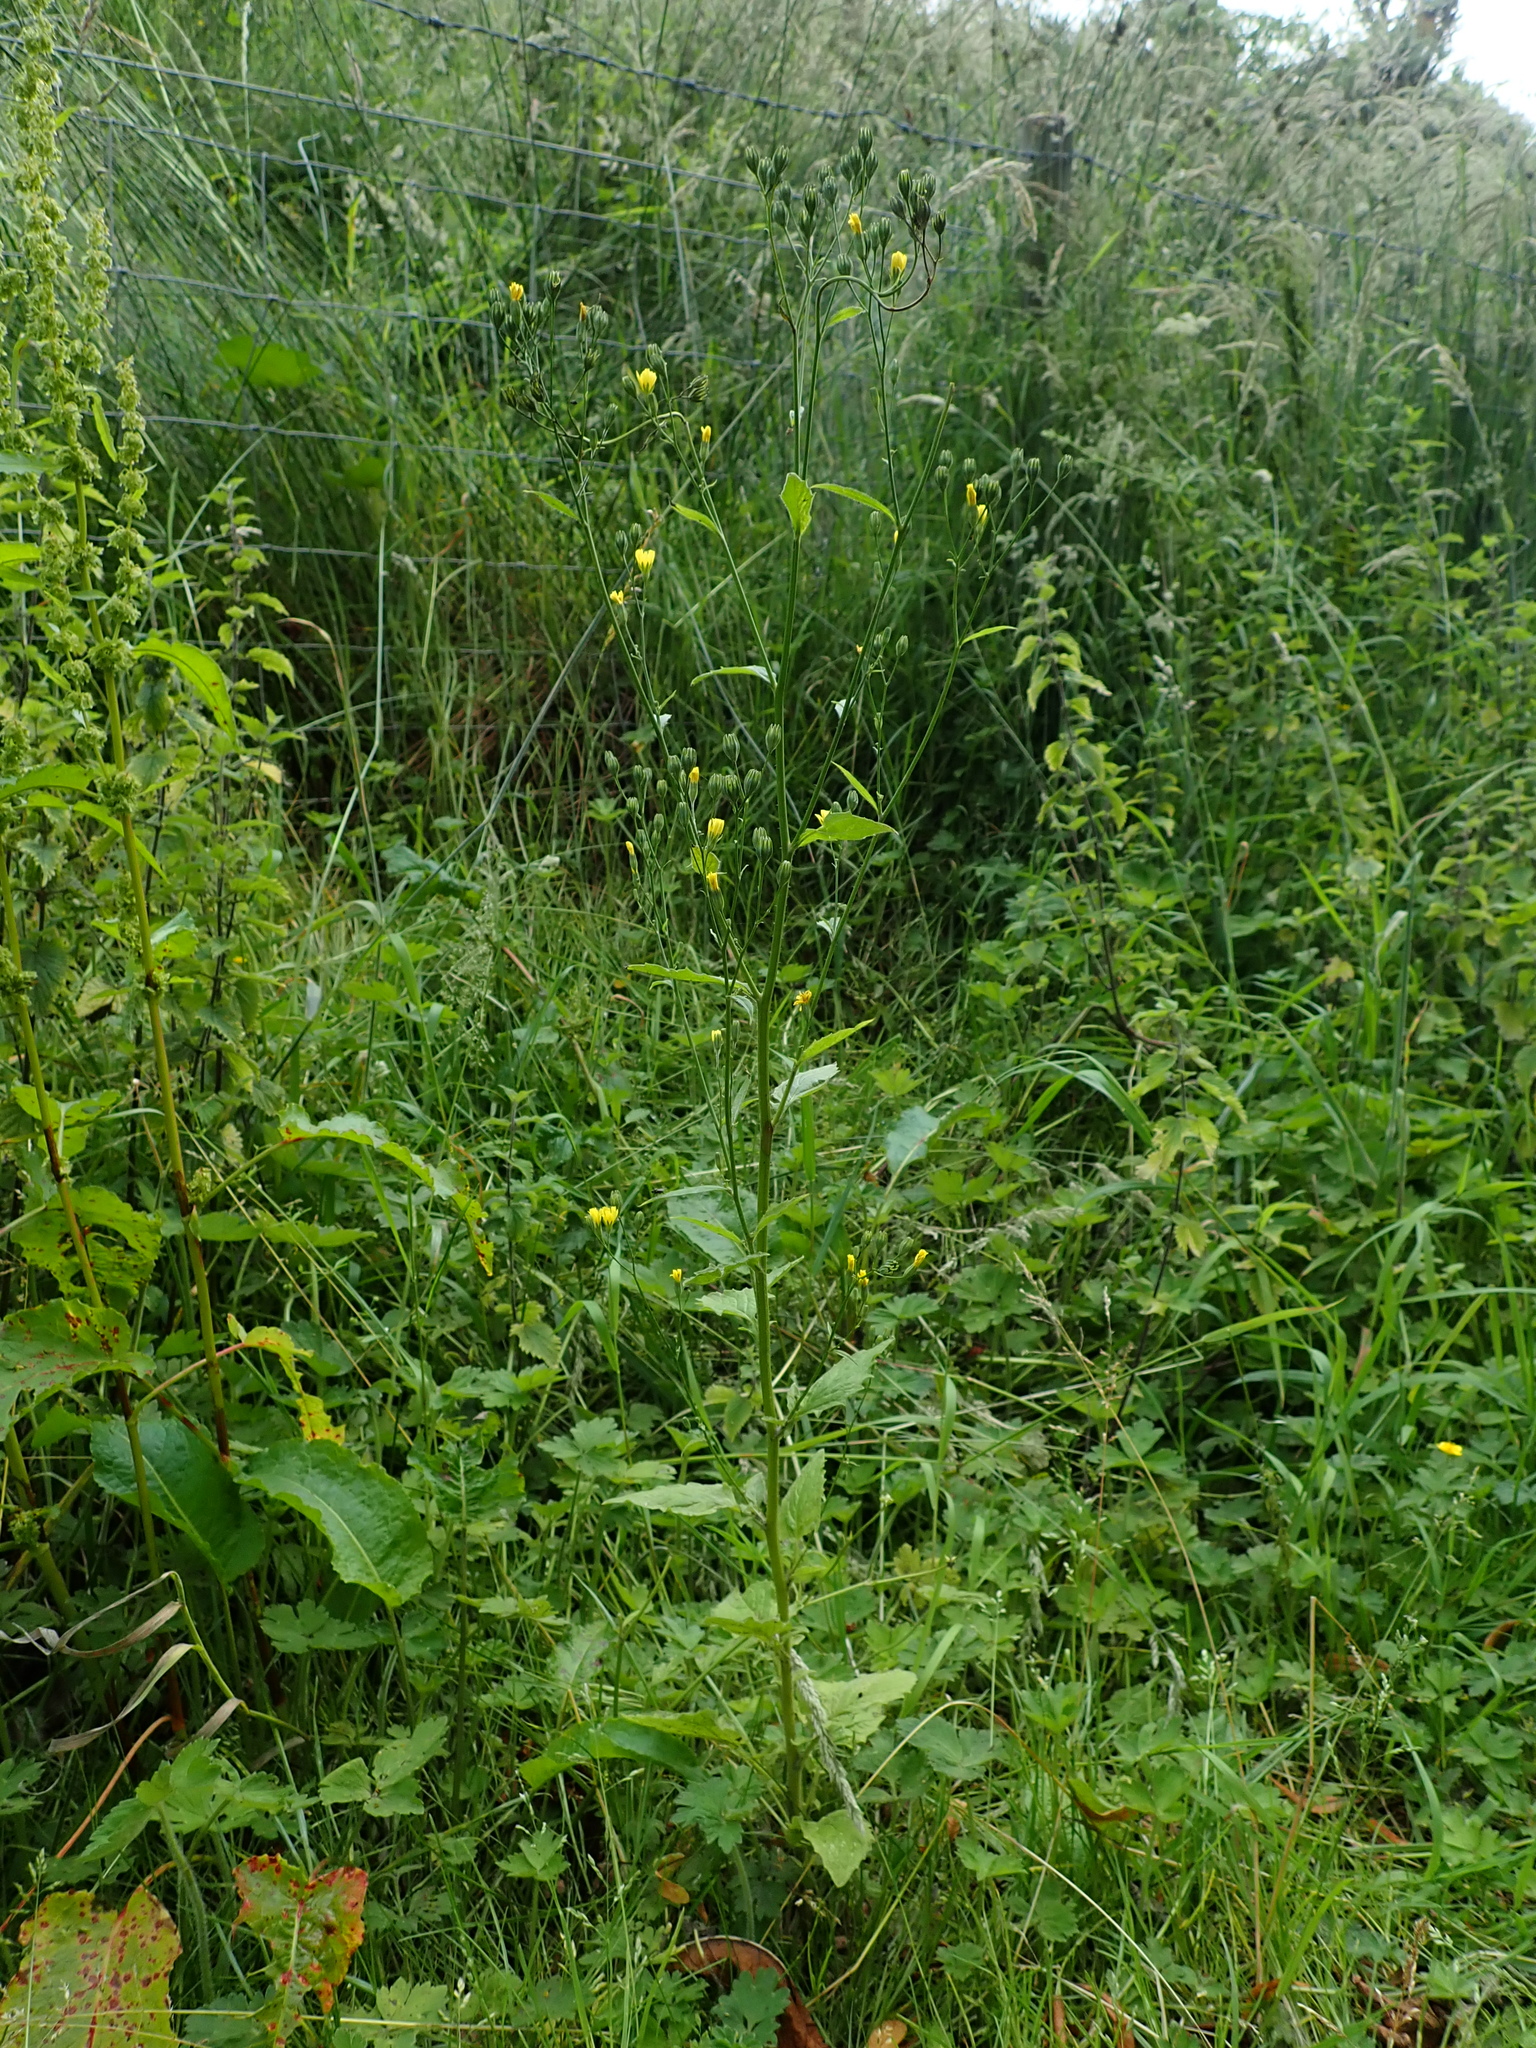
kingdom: Plantae
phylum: Tracheophyta
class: Magnoliopsida
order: Asterales
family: Asteraceae
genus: Lapsana
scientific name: Lapsana communis
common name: Nipplewort
